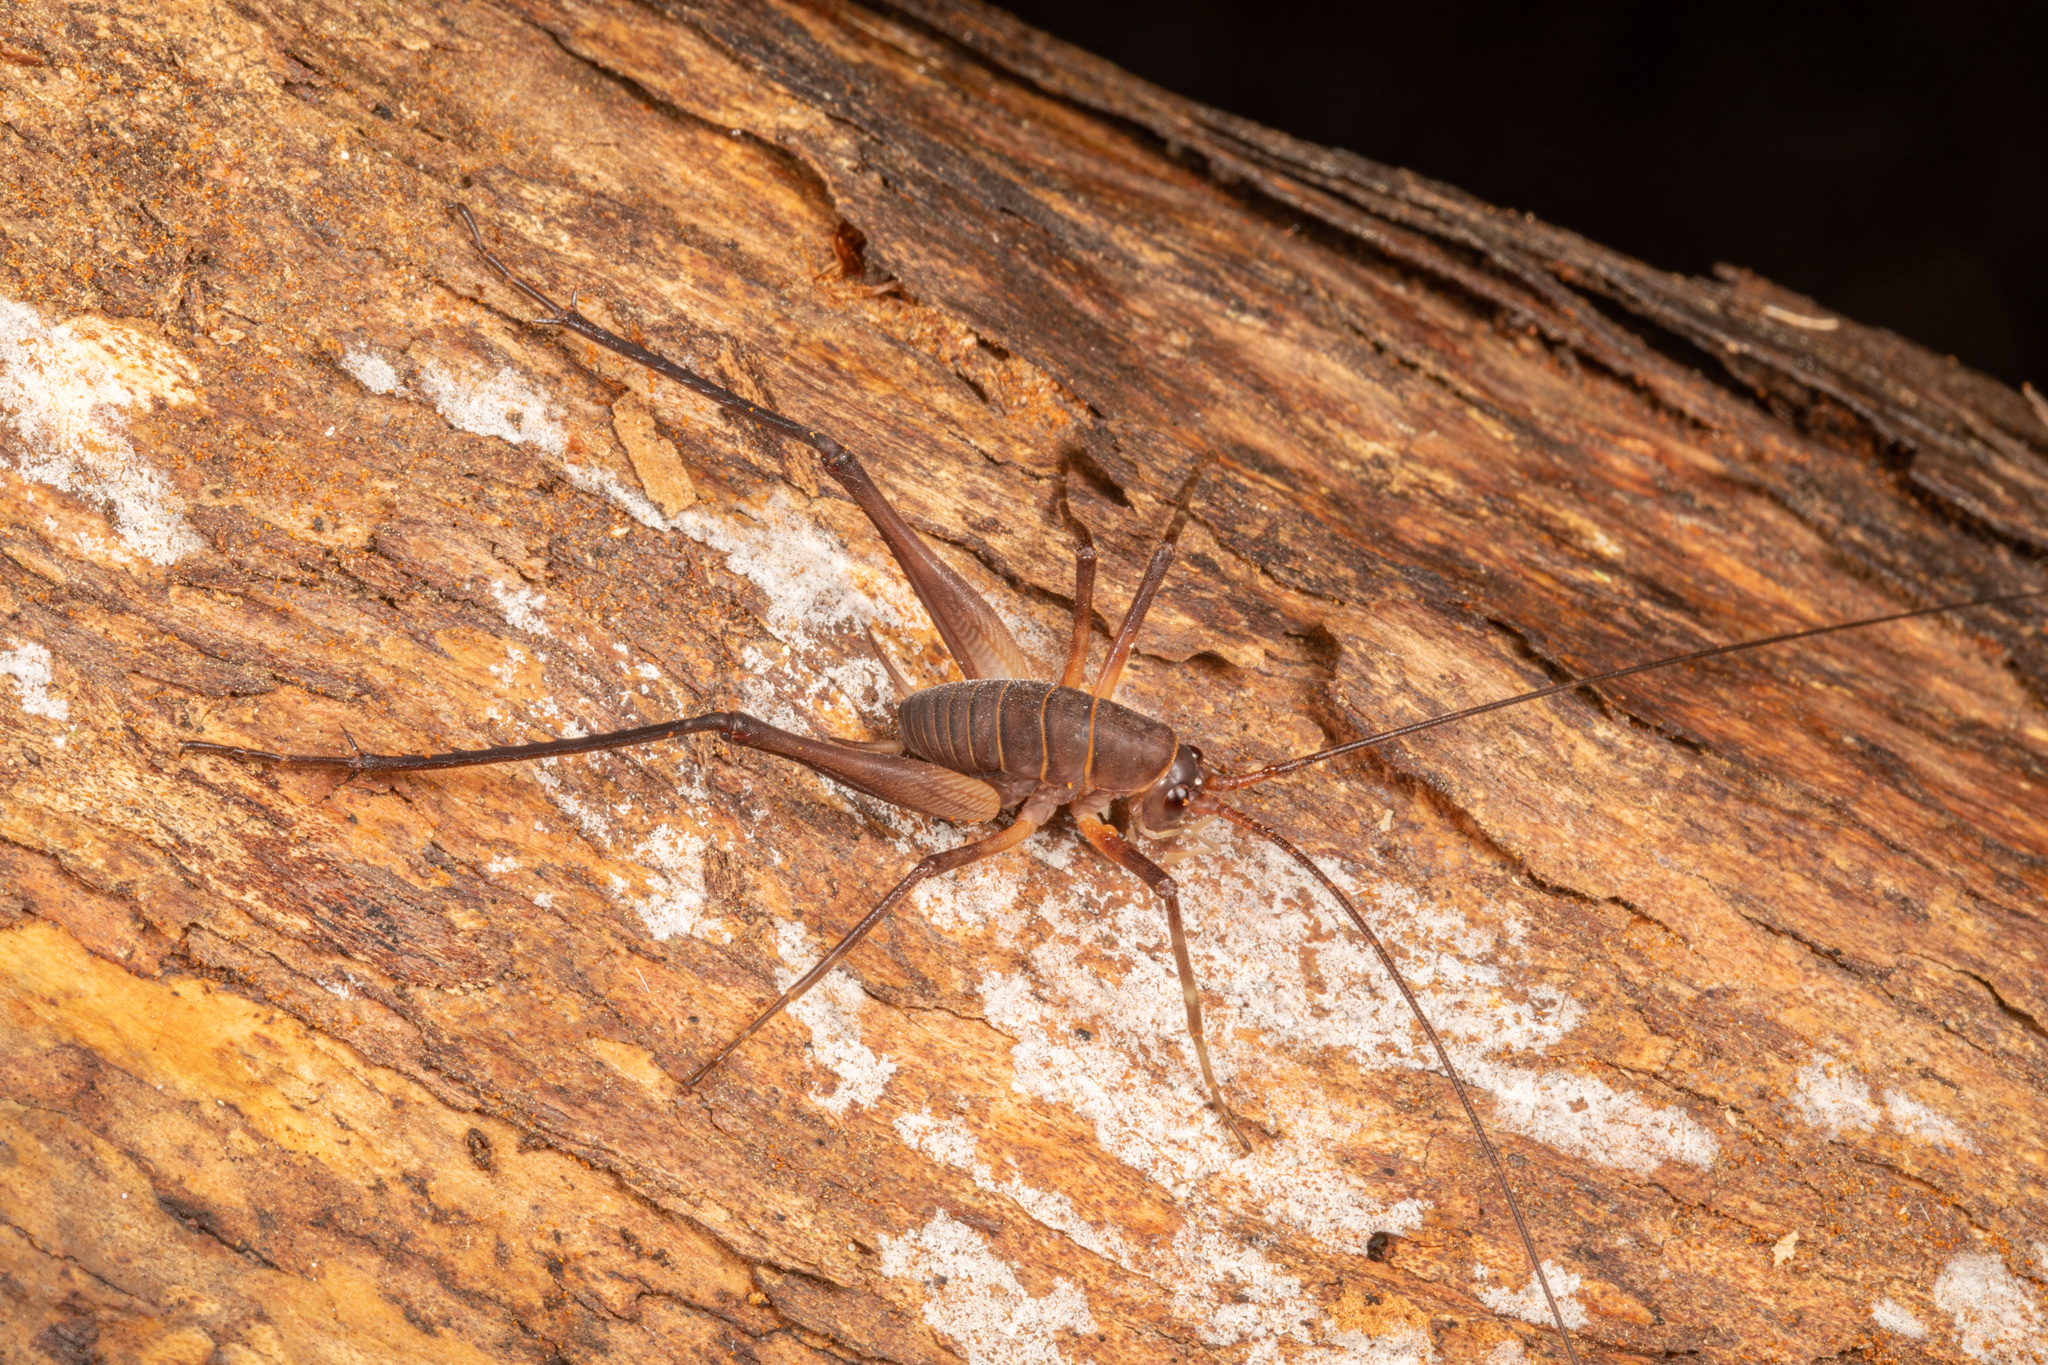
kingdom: Animalia
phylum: Arthropoda
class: Insecta
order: Orthoptera
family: Rhaphidophoridae
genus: Pachyrhamma
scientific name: Pachyrhamma longipes
